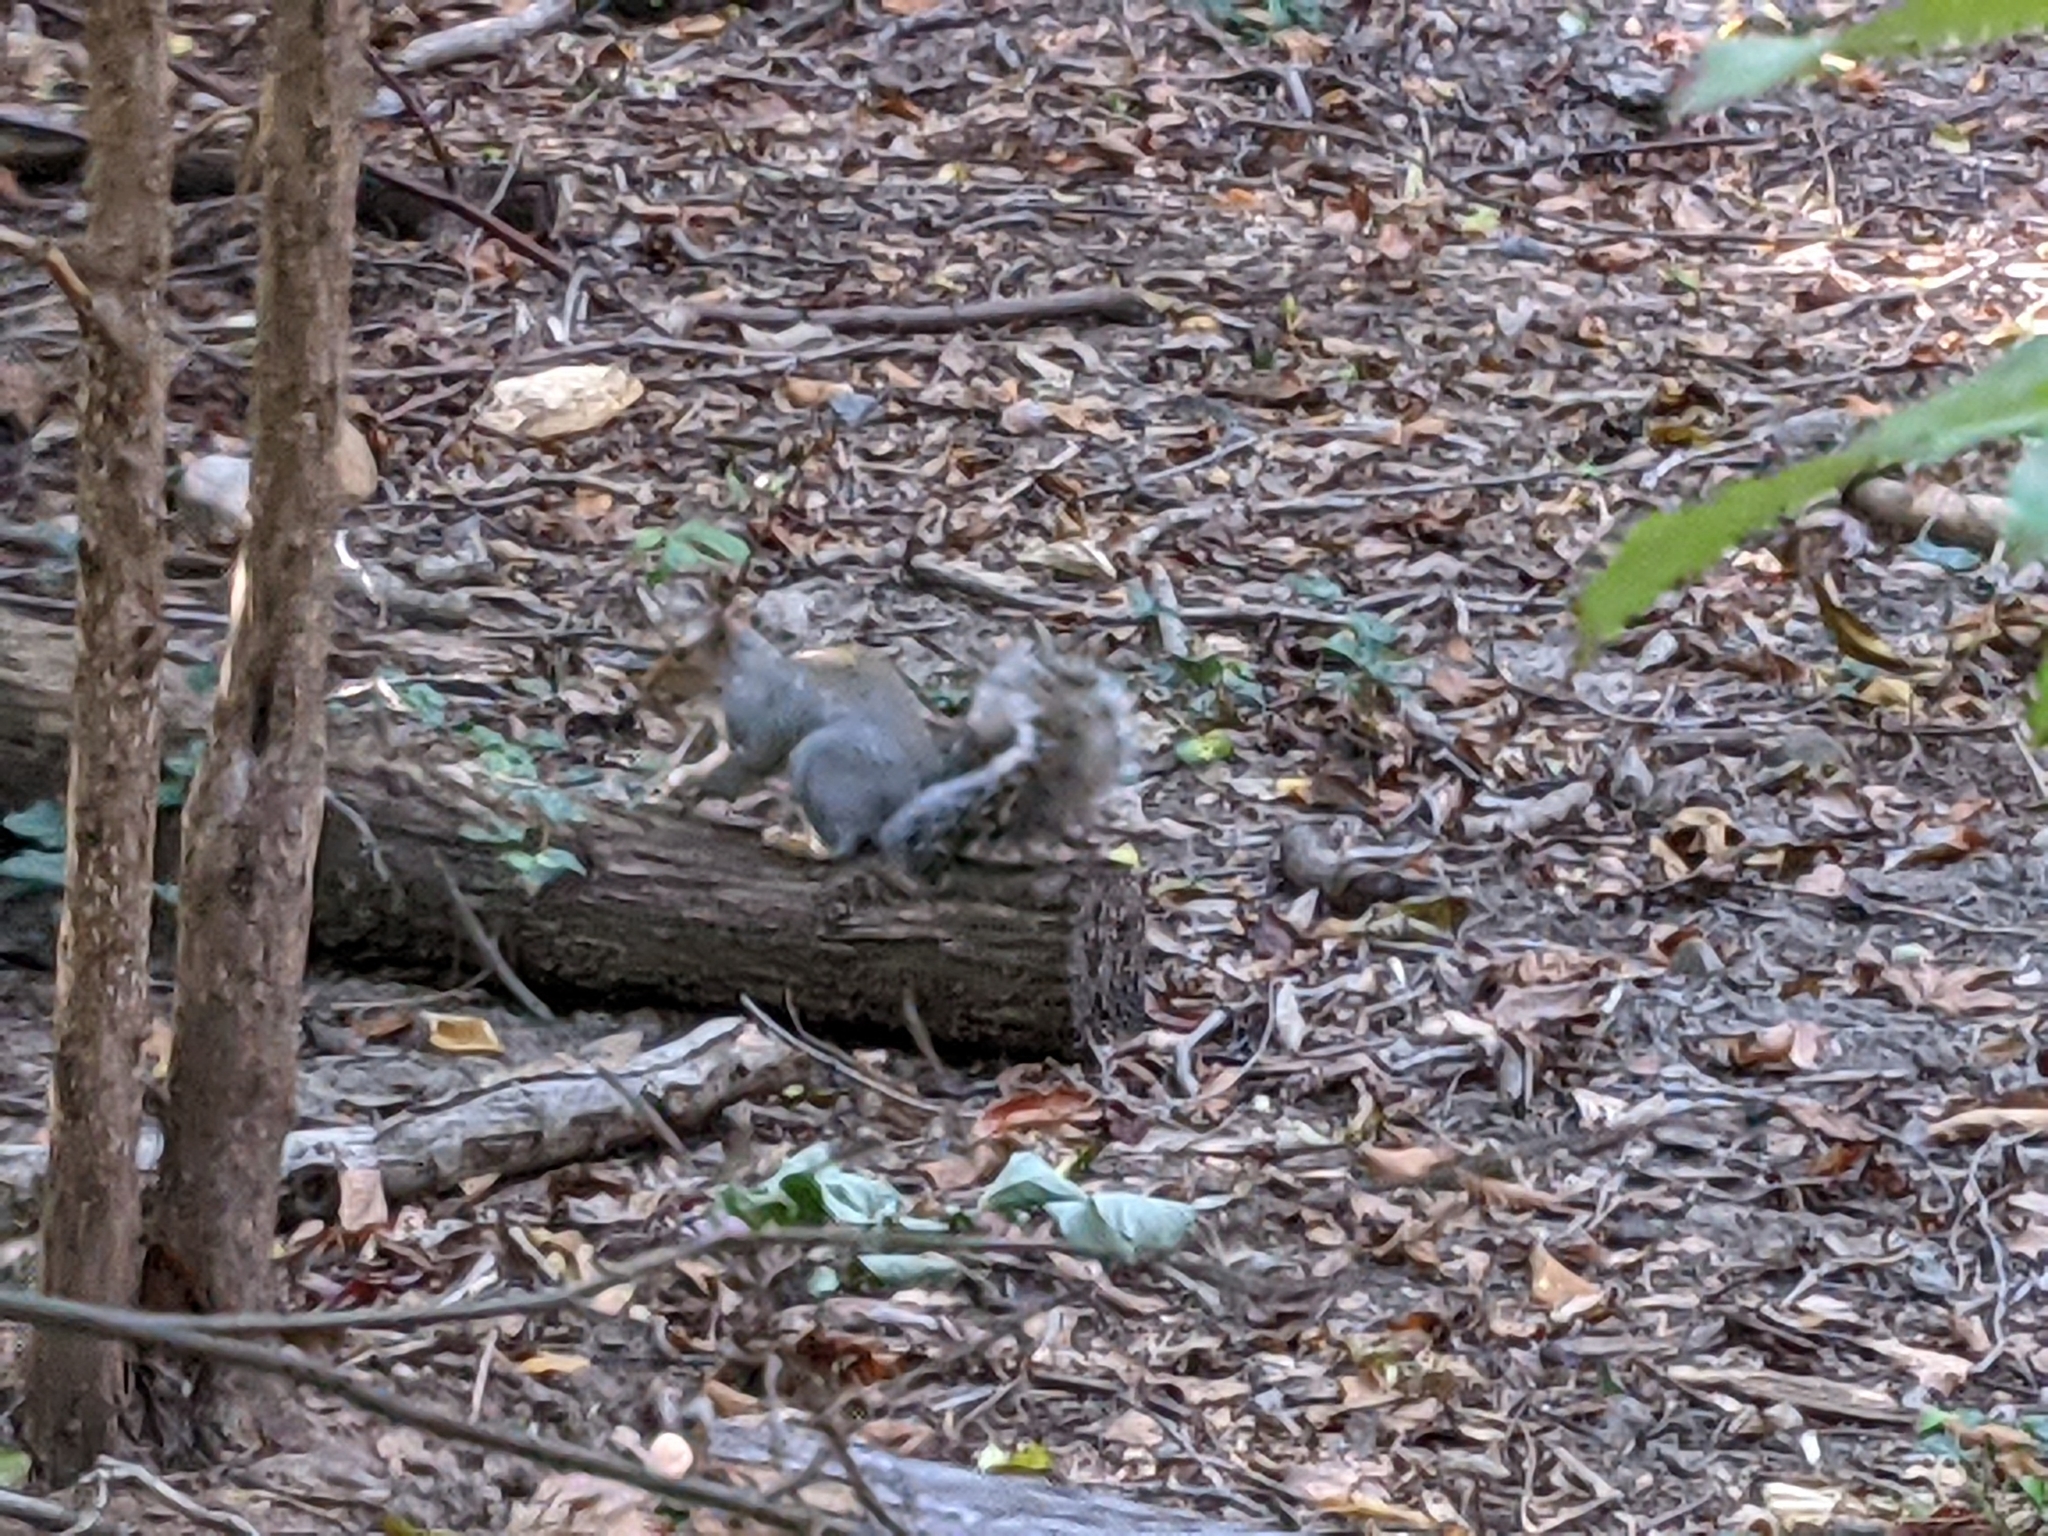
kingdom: Animalia
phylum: Chordata
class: Mammalia
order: Rodentia
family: Sciuridae
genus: Sciurus
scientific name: Sciurus carolinensis
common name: Eastern gray squirrel
